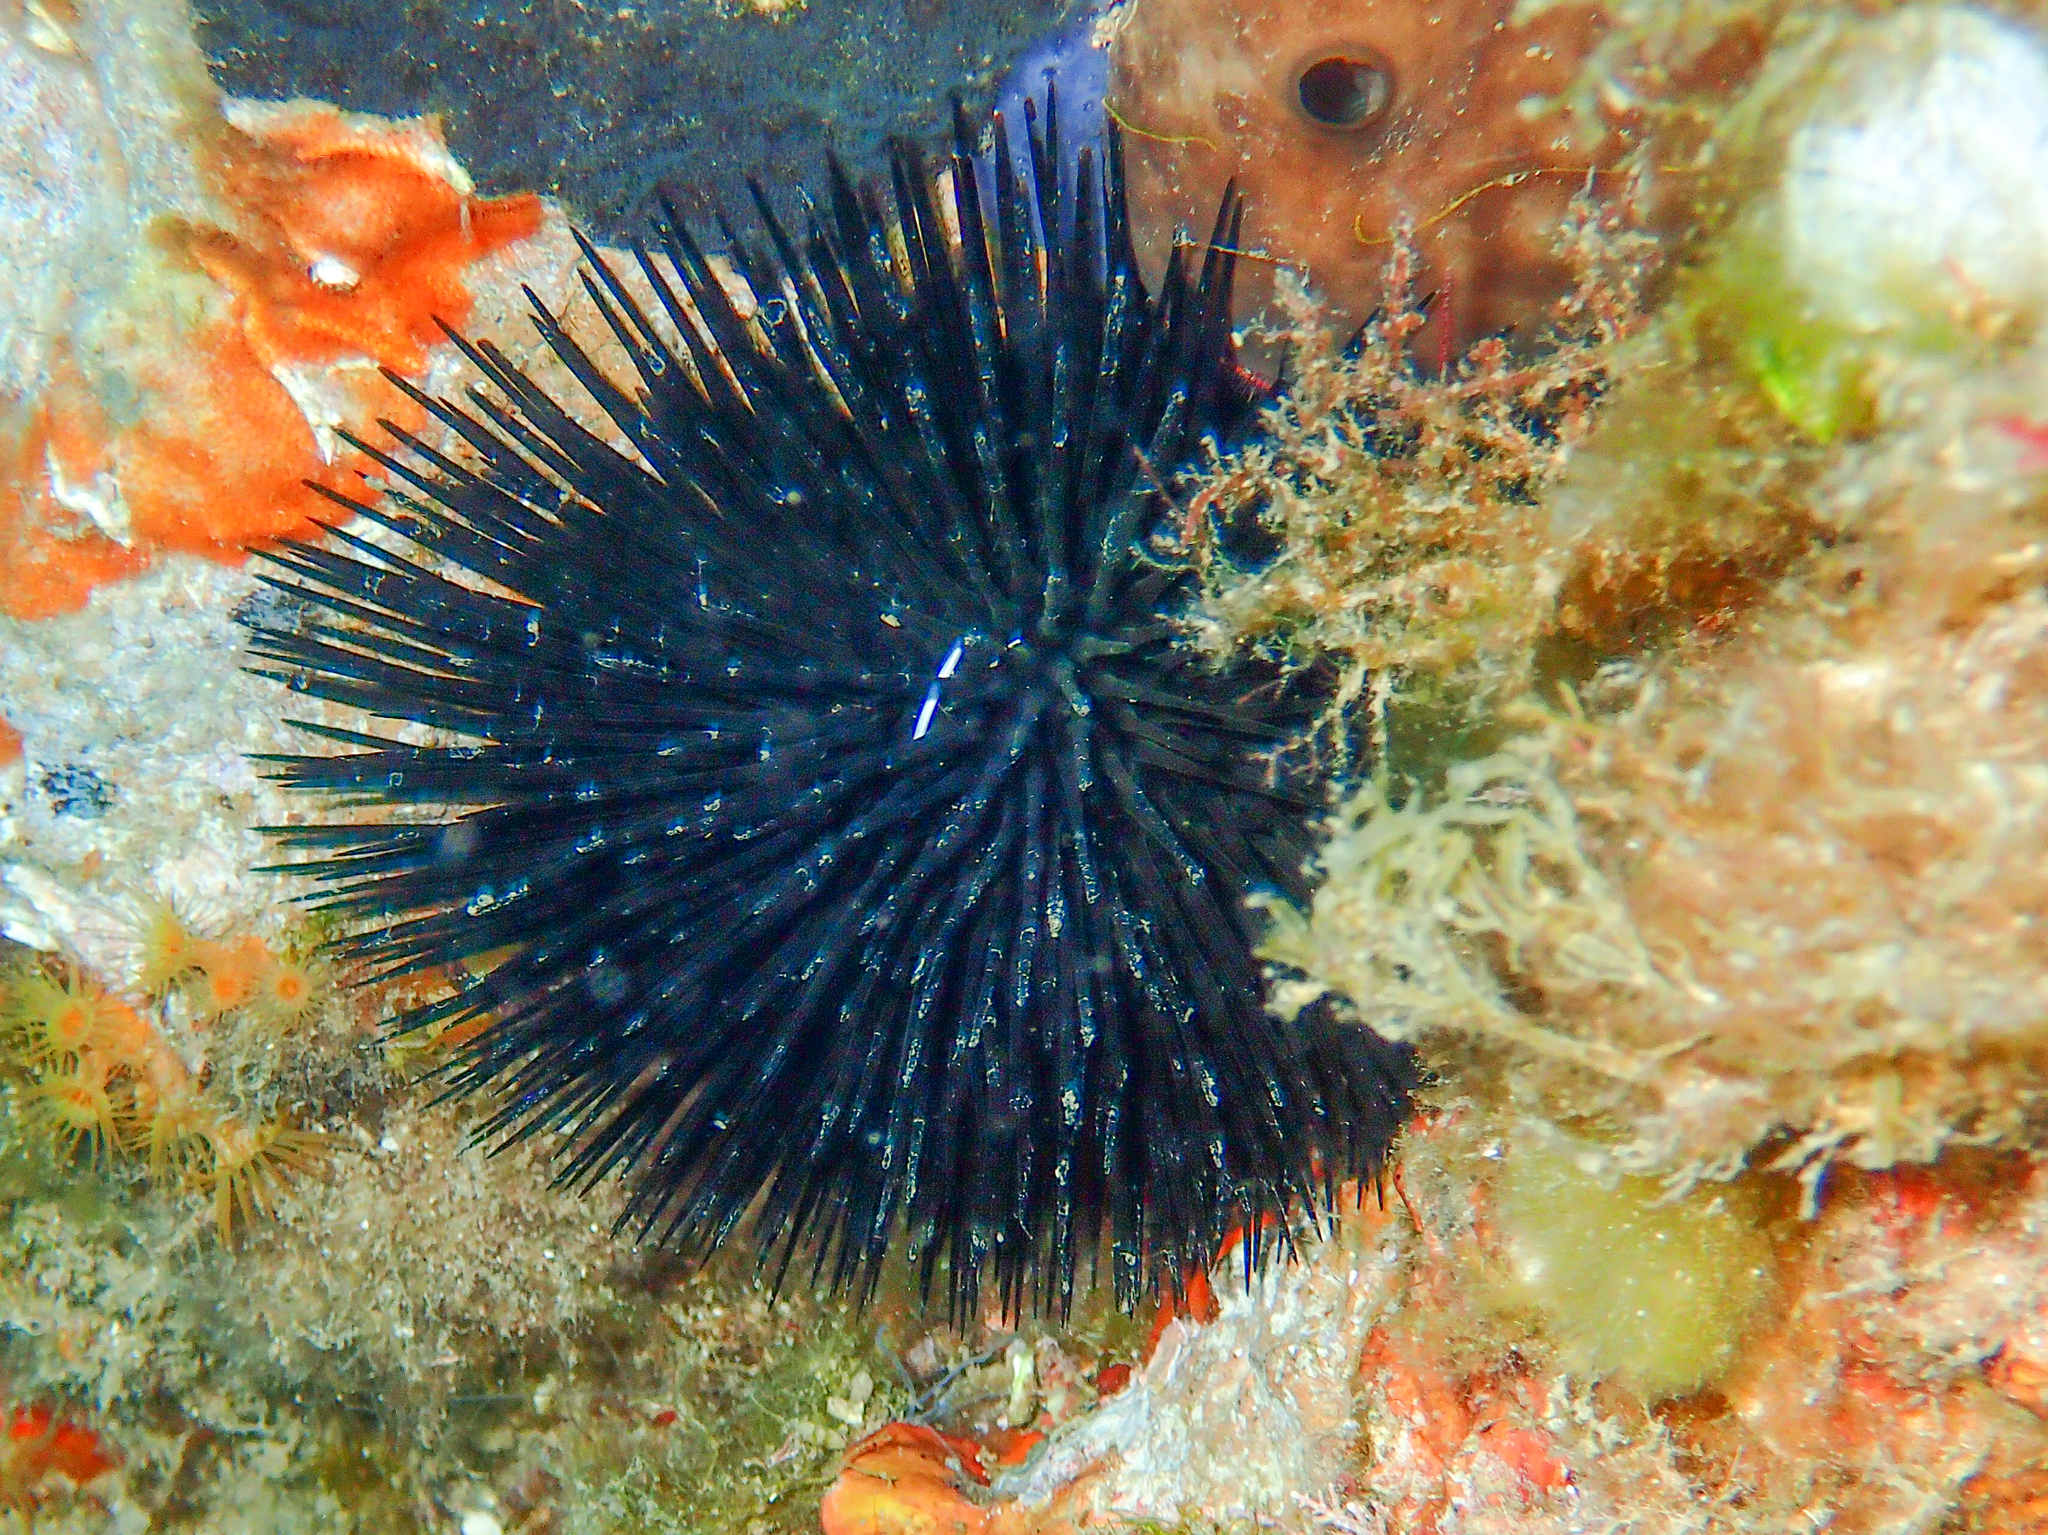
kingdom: Animalia
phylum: Echinodermata
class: Echinoidea
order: Arbacioida
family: Arbaciidae
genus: Arbacia
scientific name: Arbacia lixula
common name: Black sea urchin
